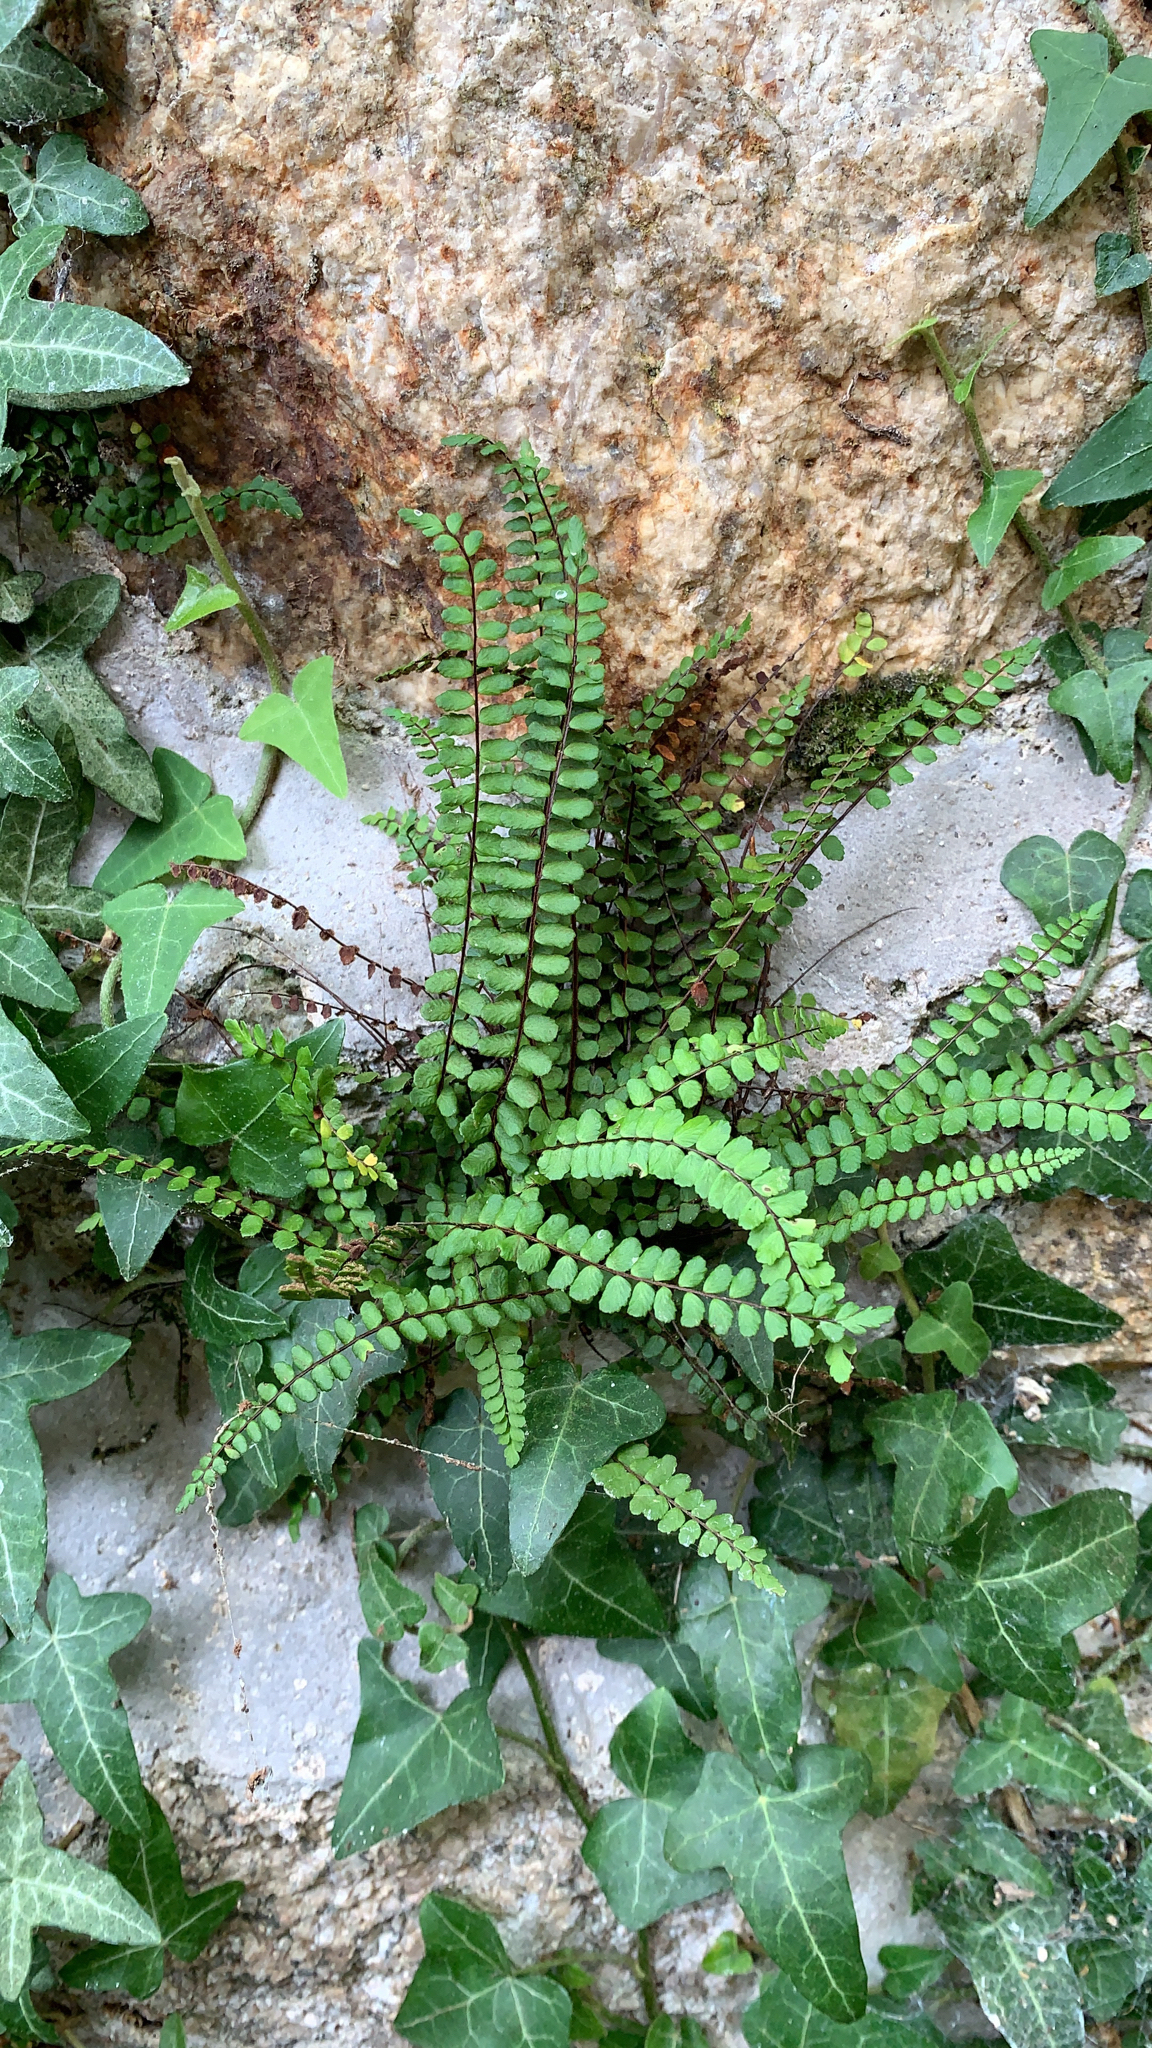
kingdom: Plantae
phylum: Tracheophyta
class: Polypodiopsida
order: Polypodiales
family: Aspleniaceae
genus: Asplenium
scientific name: Asplenium trichomanes
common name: Maidenhair spleenwort
